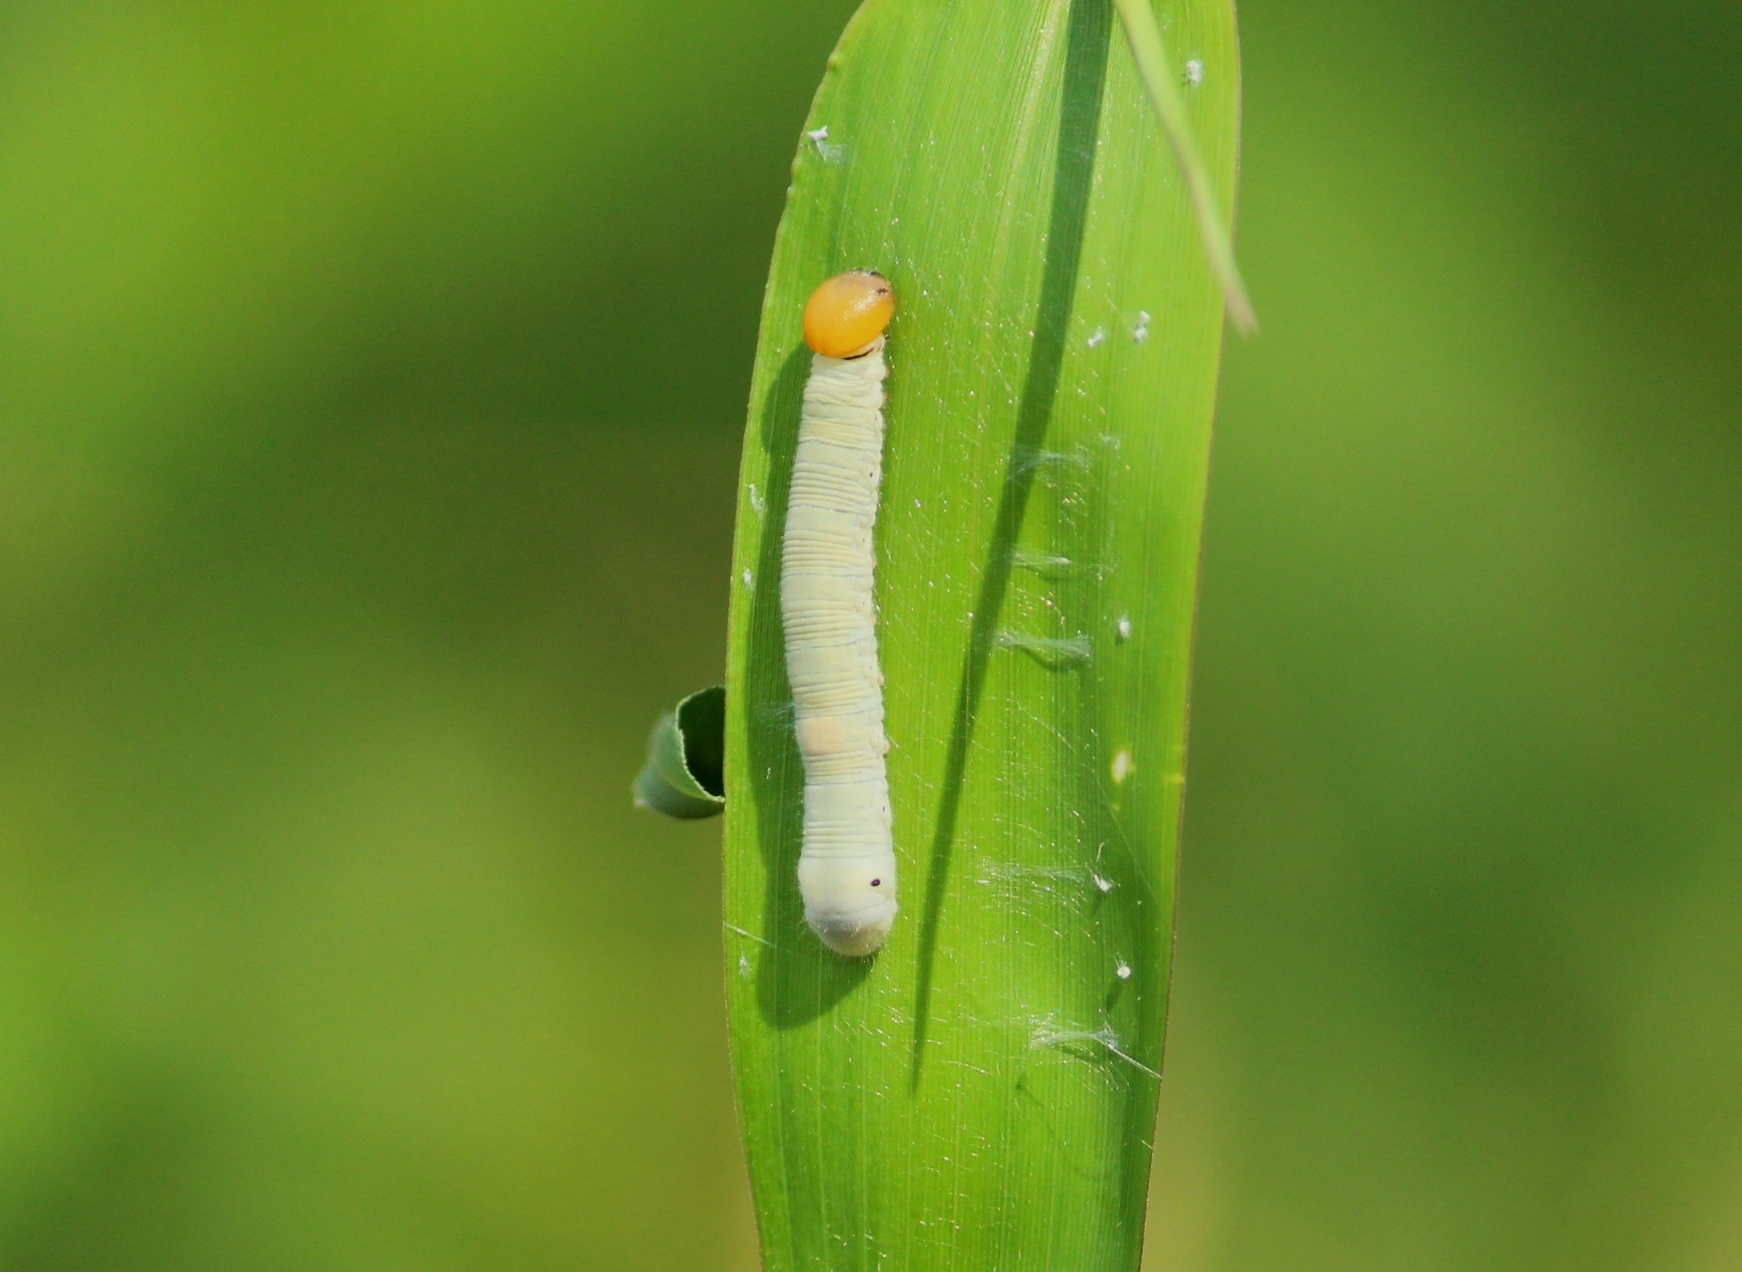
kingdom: Animalia
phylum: Arthropoda
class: Insecta
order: Lepidoptera
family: Hesperiidae
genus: Matapa
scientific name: Matapa aria
